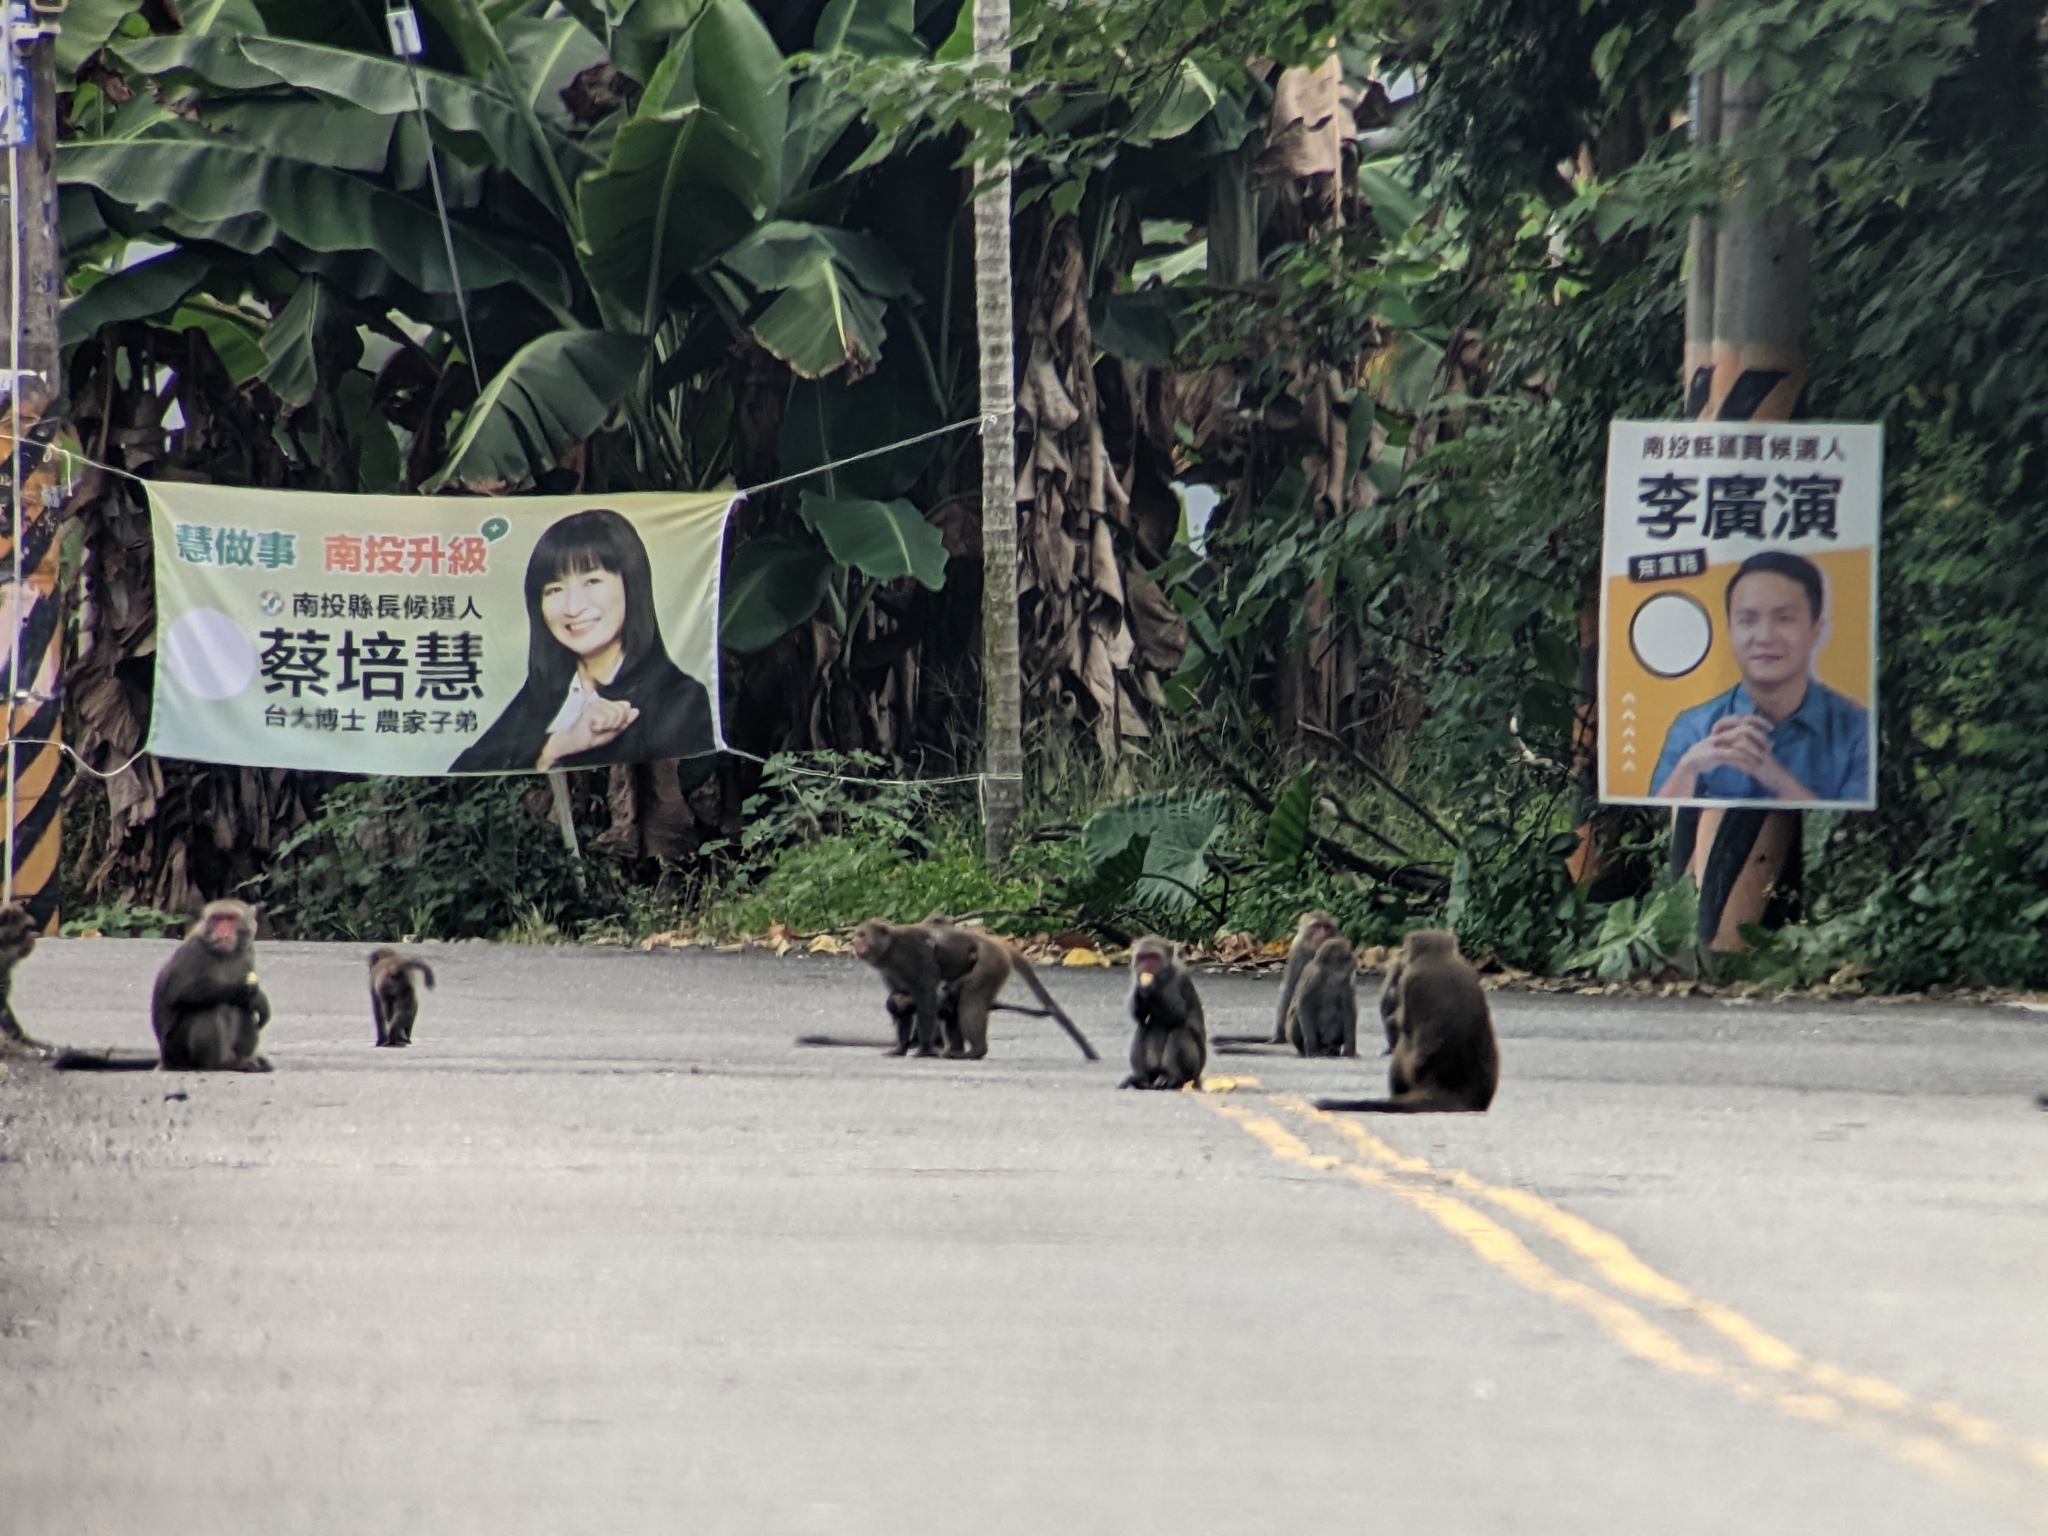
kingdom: Animalia
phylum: Chordata
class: Mammalia
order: Primates
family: Cercopithecidae
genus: Macaca
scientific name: Macaca cyclopis
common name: Formosan rock macaque
